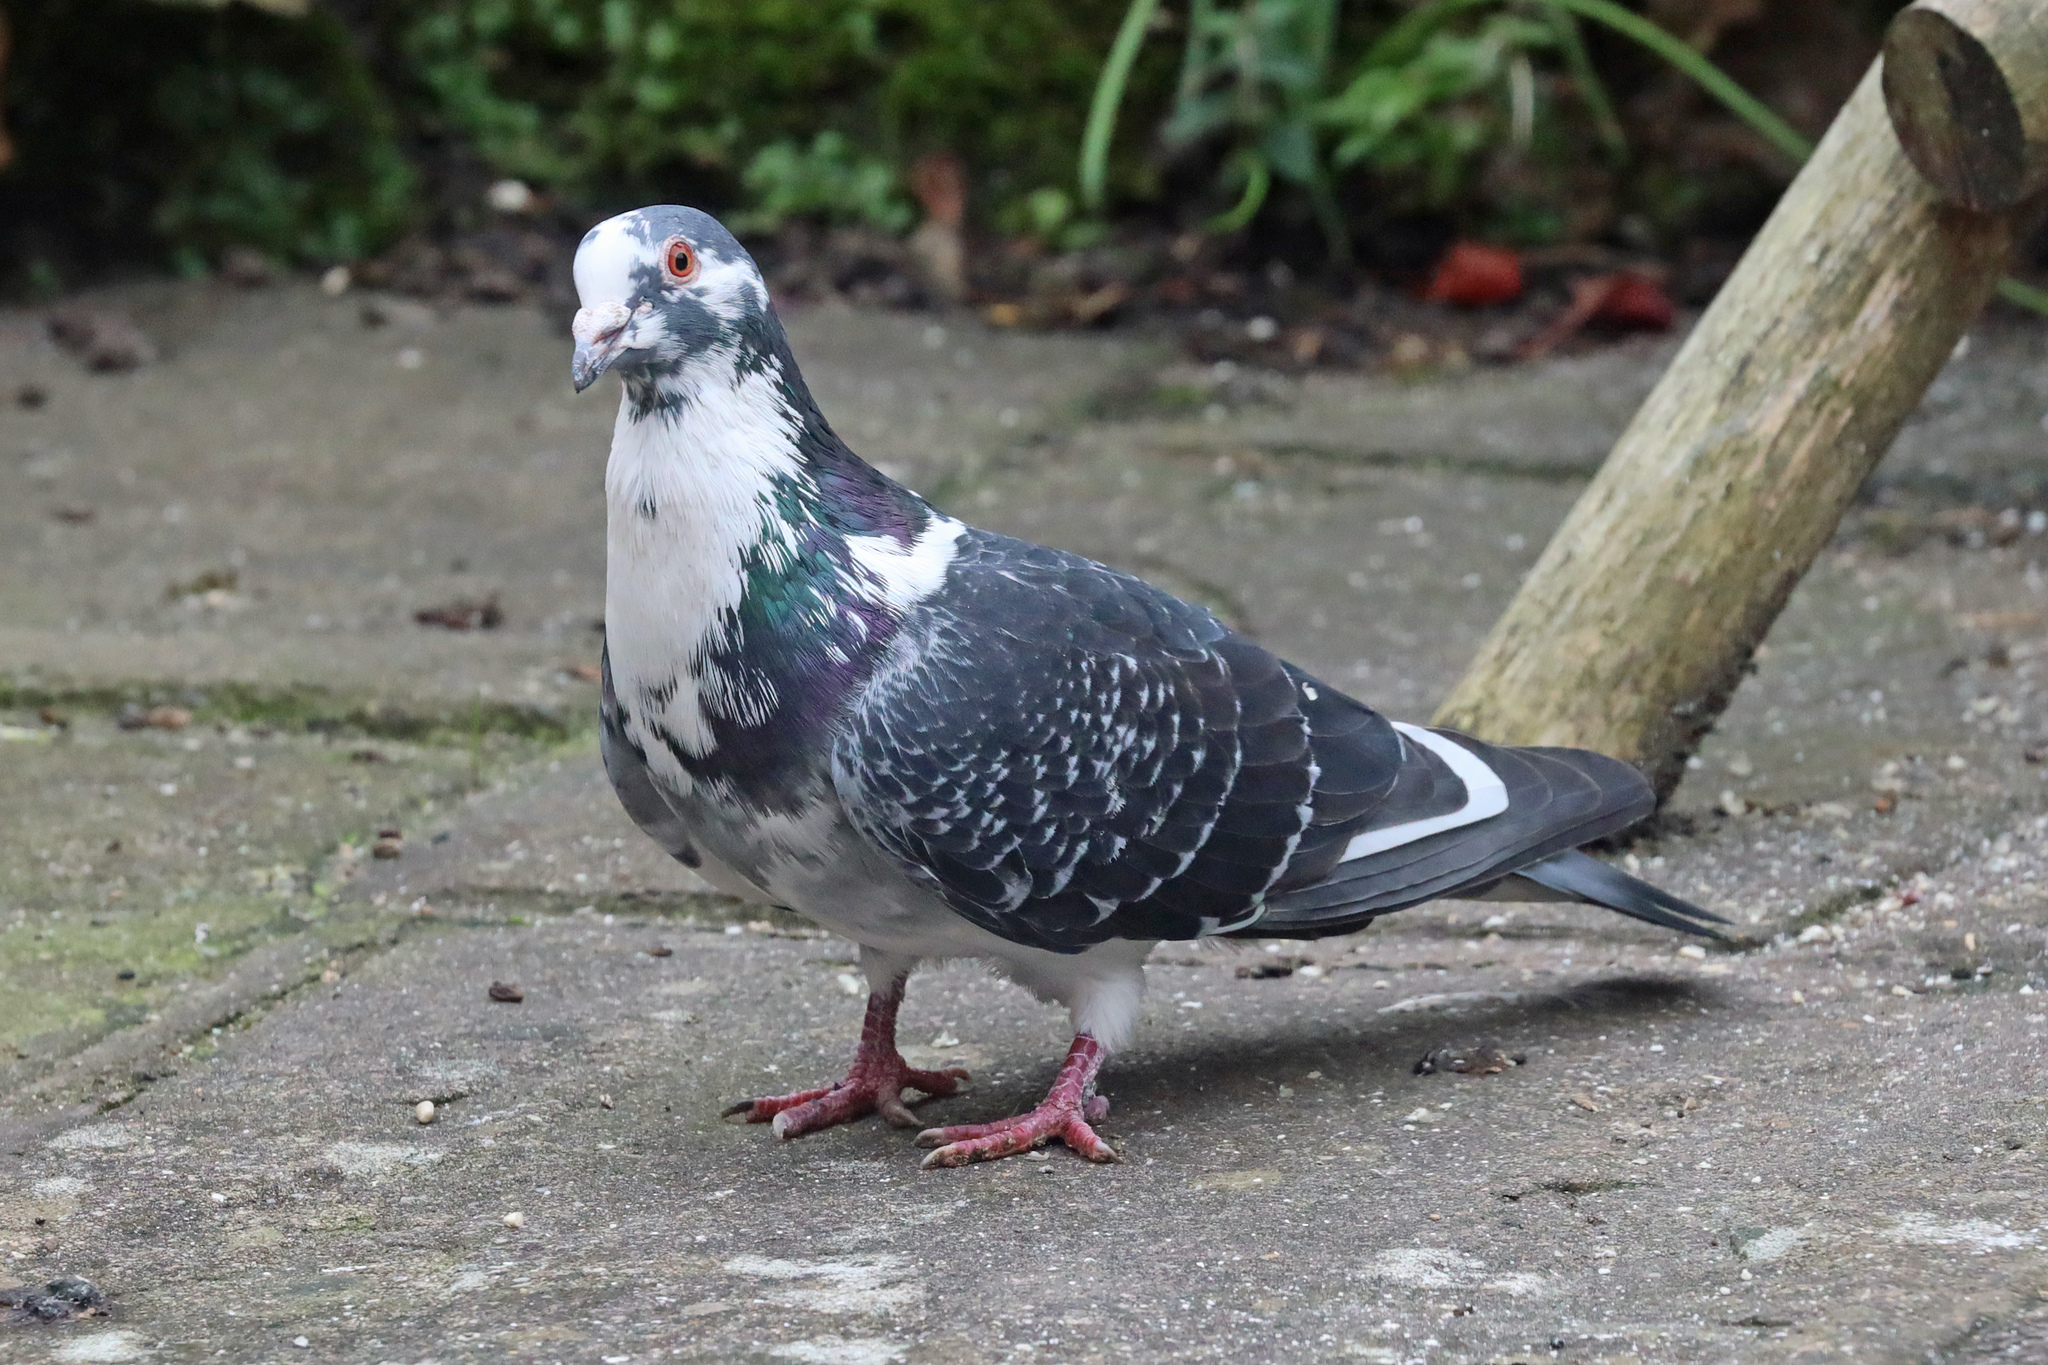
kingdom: Animalia
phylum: Chordata
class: Aves
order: Columbiformes
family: Columbidae
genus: Columba
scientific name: Columba livia
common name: Rock pigeon
